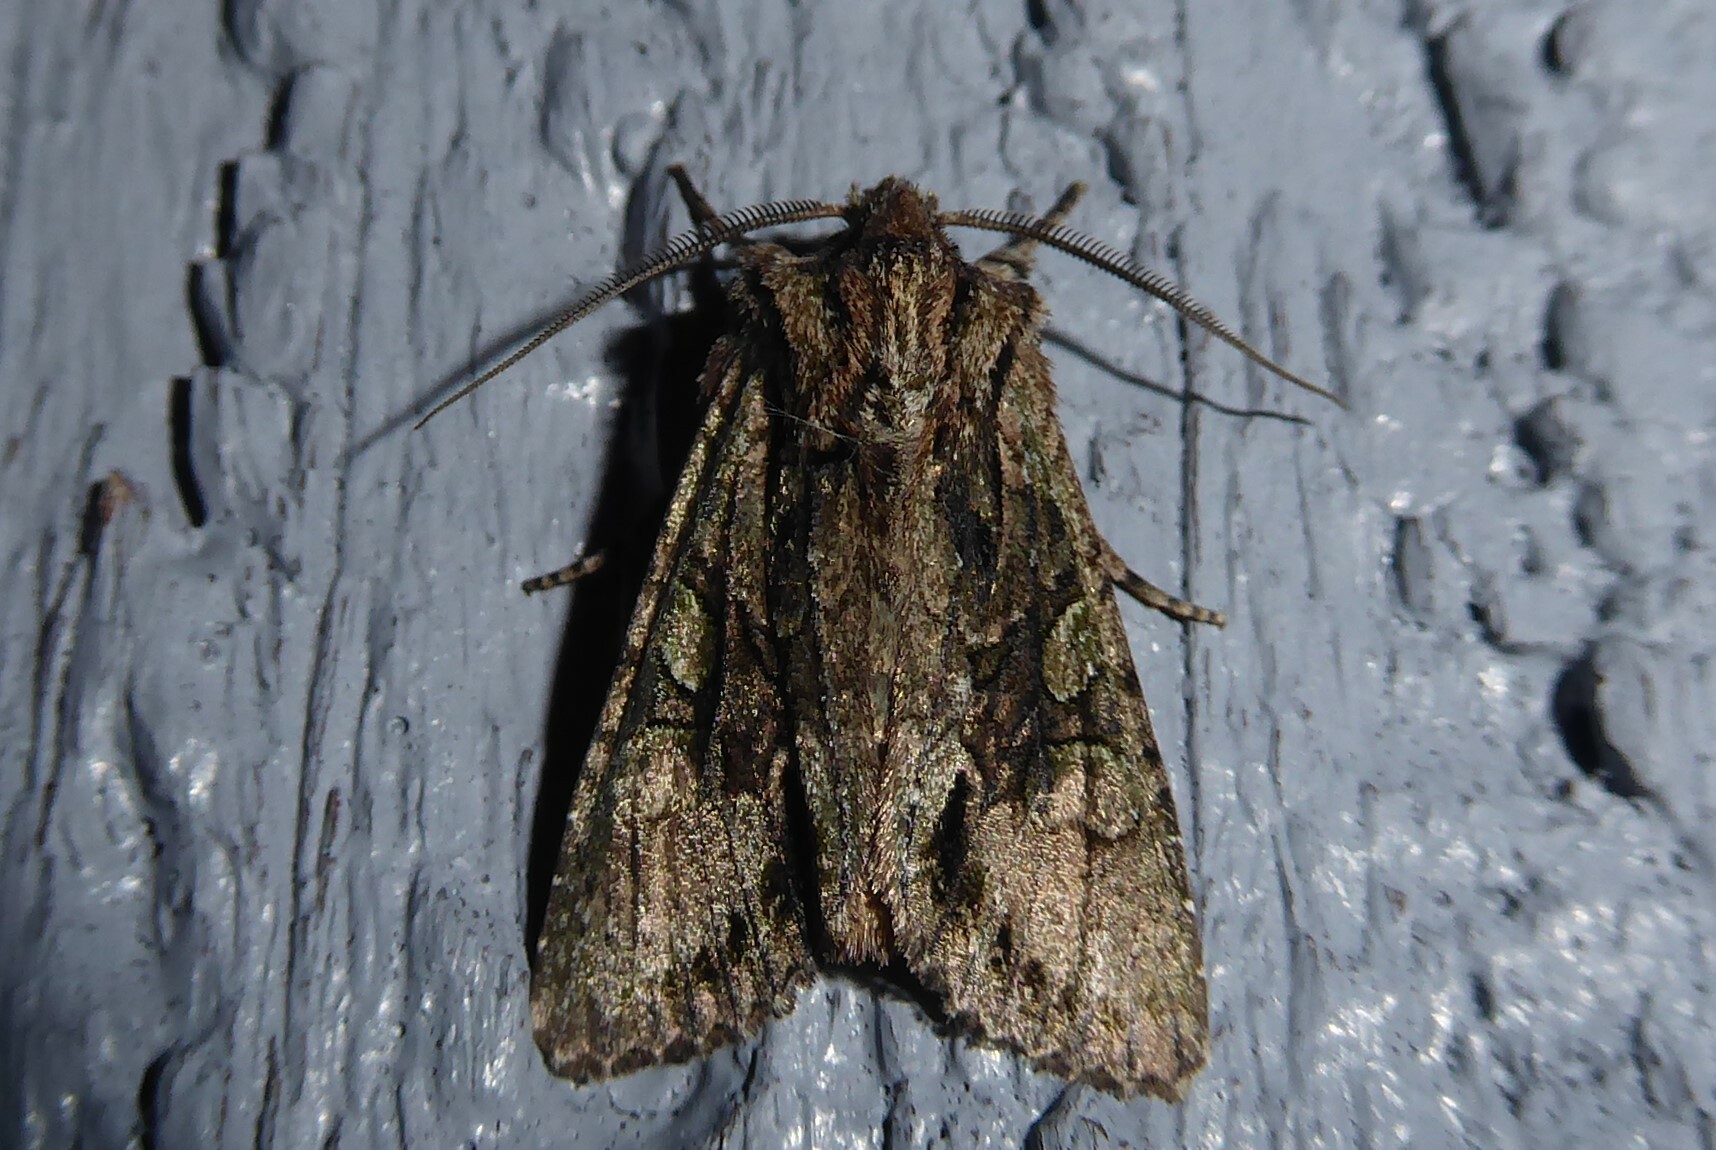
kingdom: Animalia
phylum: Arthropoda
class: Insecta
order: Lepidoptera
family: Noctuidae
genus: Ichneutica
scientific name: Ichneutica mutans
